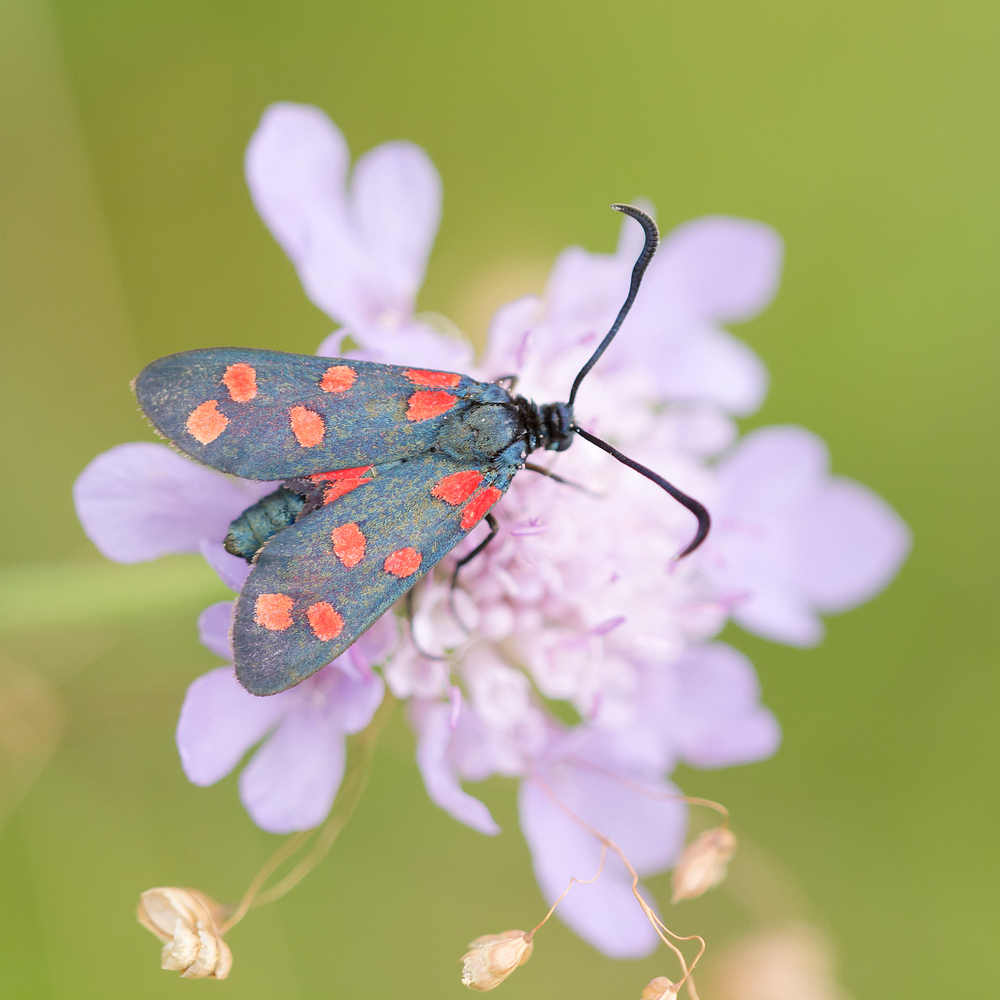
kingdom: Animalia
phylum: Arthropoda
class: Insecta
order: Lepidoptera
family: Zygaenidae
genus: Zygaena
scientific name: Zygaena transalpina
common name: Southern six spot burnet
